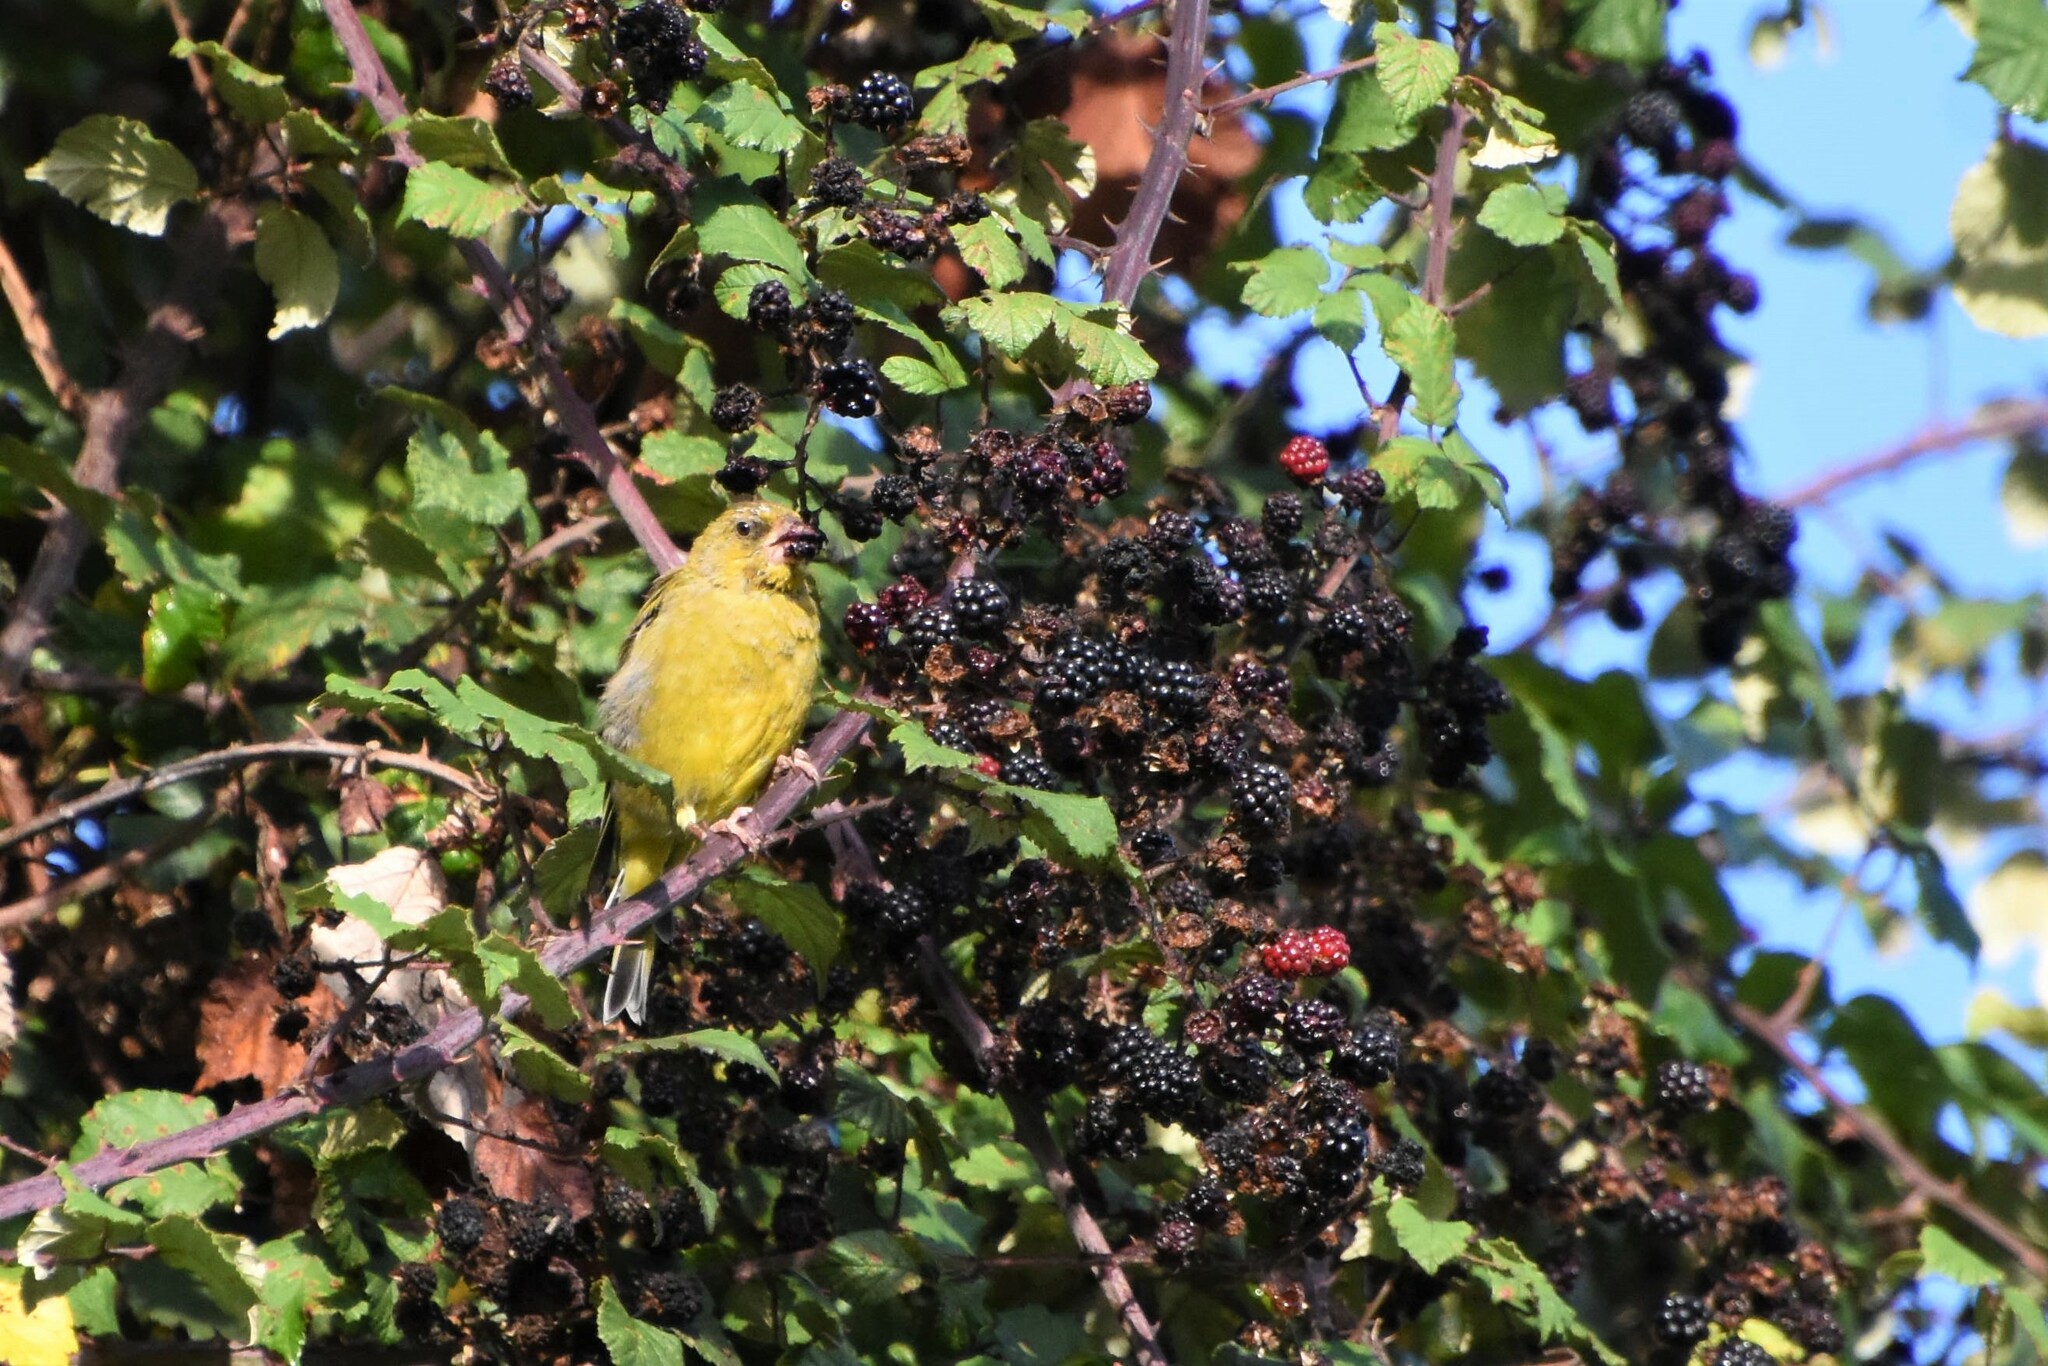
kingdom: Plantae
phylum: Tracheophyta
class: Liliopsida
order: Poales
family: Poaceae
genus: Chloris
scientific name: Chloris chloris
